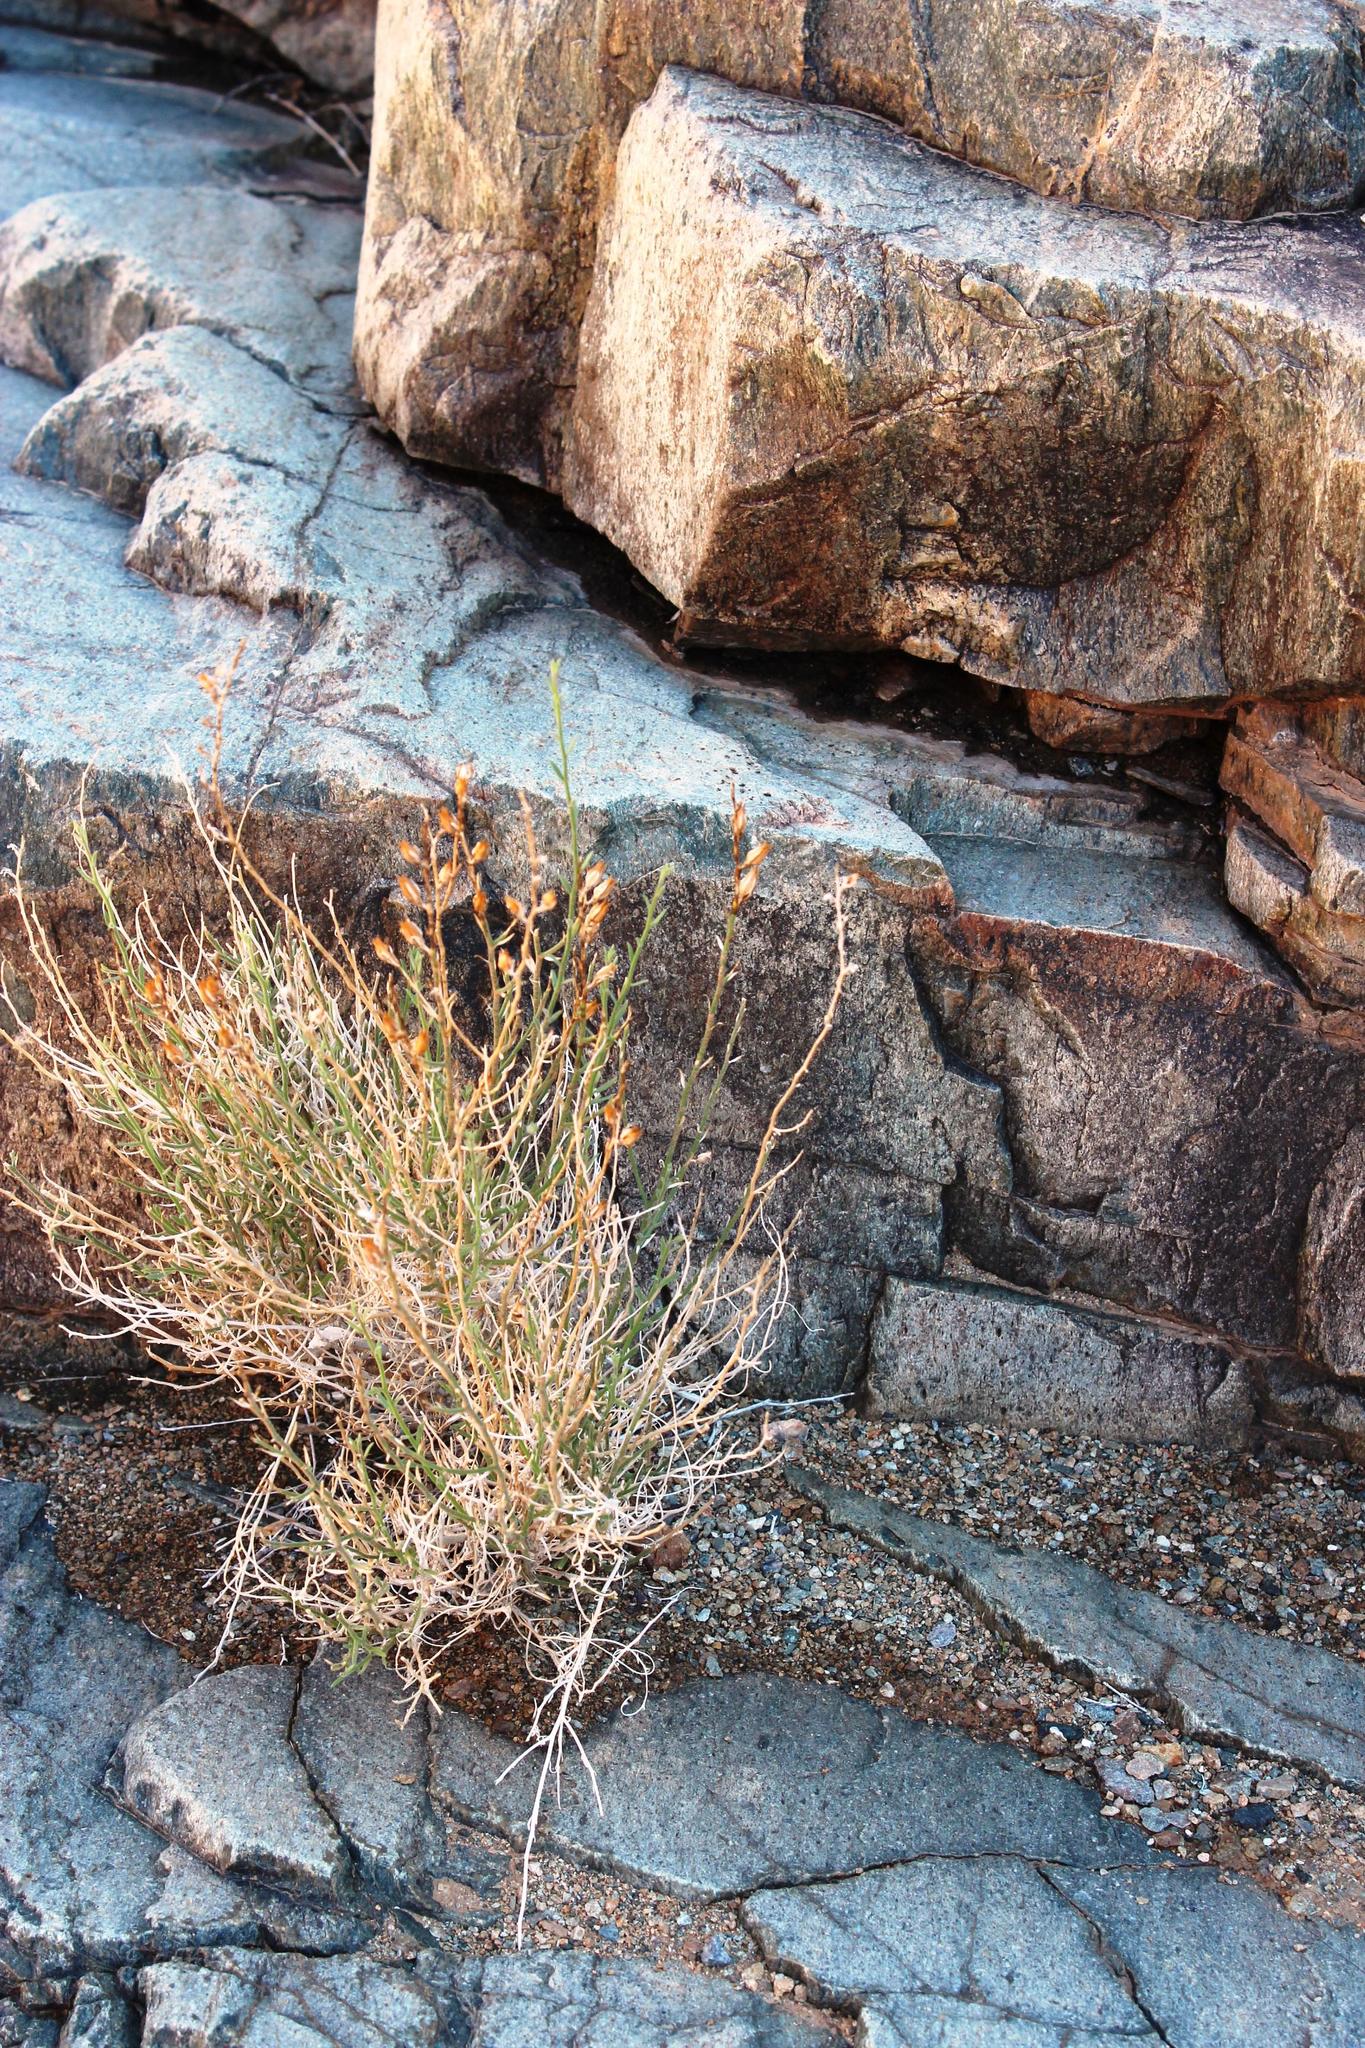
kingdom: Plantae
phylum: Tracheophyta
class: Magnoliopsida
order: Lamiales
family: Scrophulariaceae
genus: Anticharis
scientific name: Anticharis scoparia
